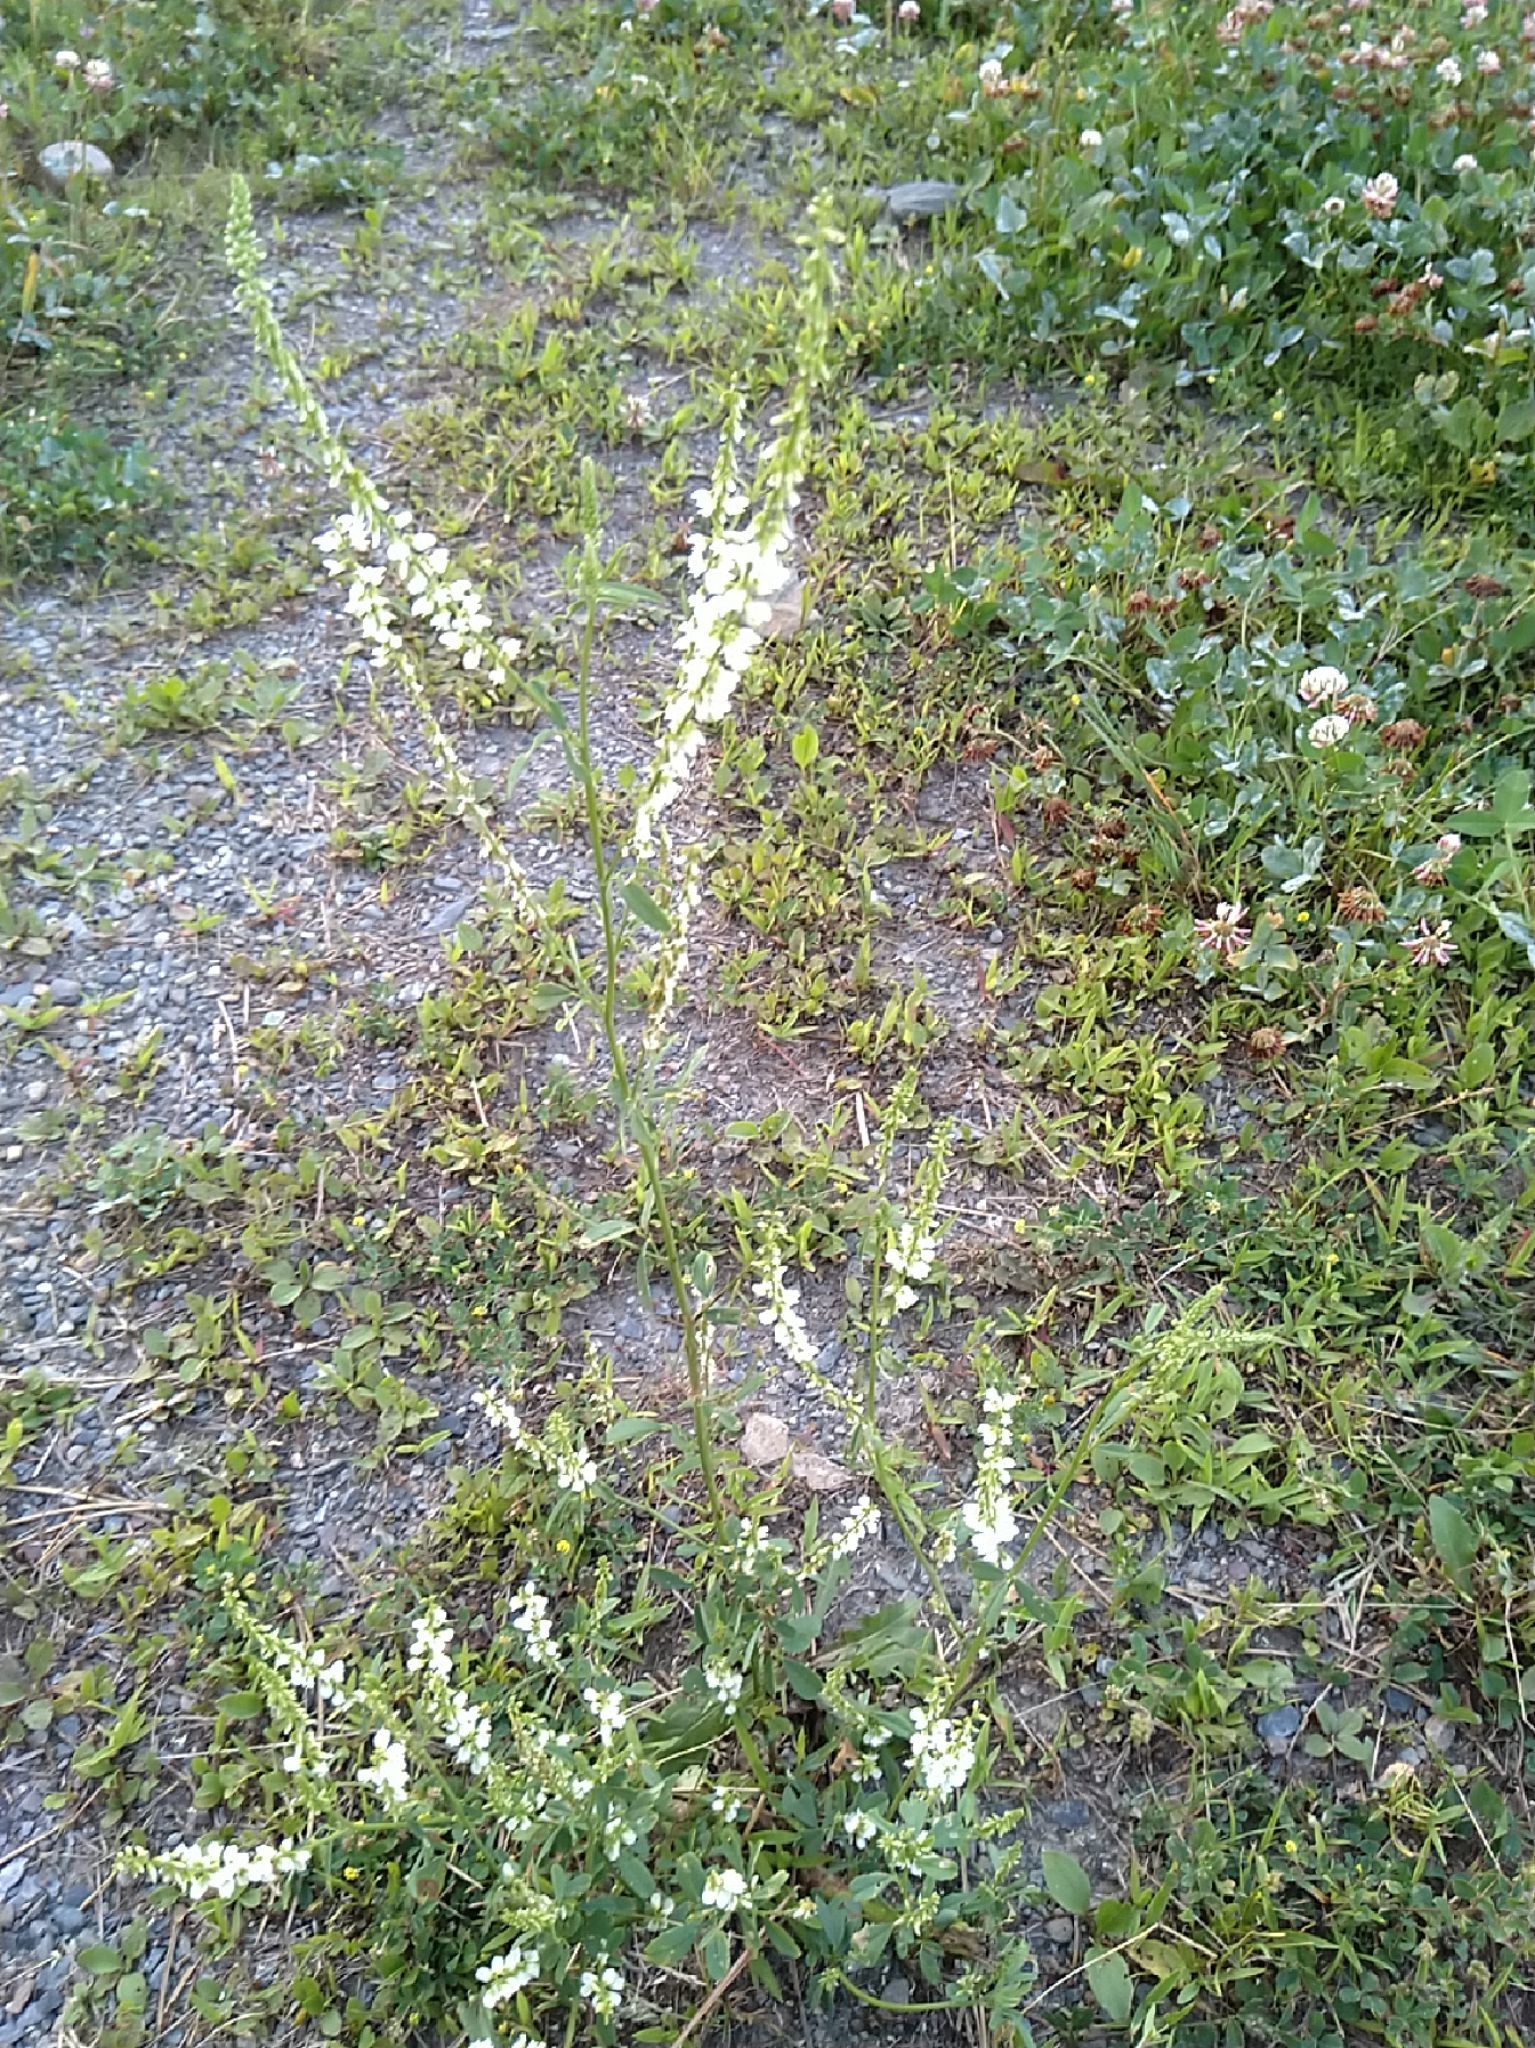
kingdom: Plantae
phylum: Tracheophyta
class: Magnoliopsida
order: Fabales
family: Fabaceae
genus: Melilotus
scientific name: Melilotus albus
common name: White melilot
